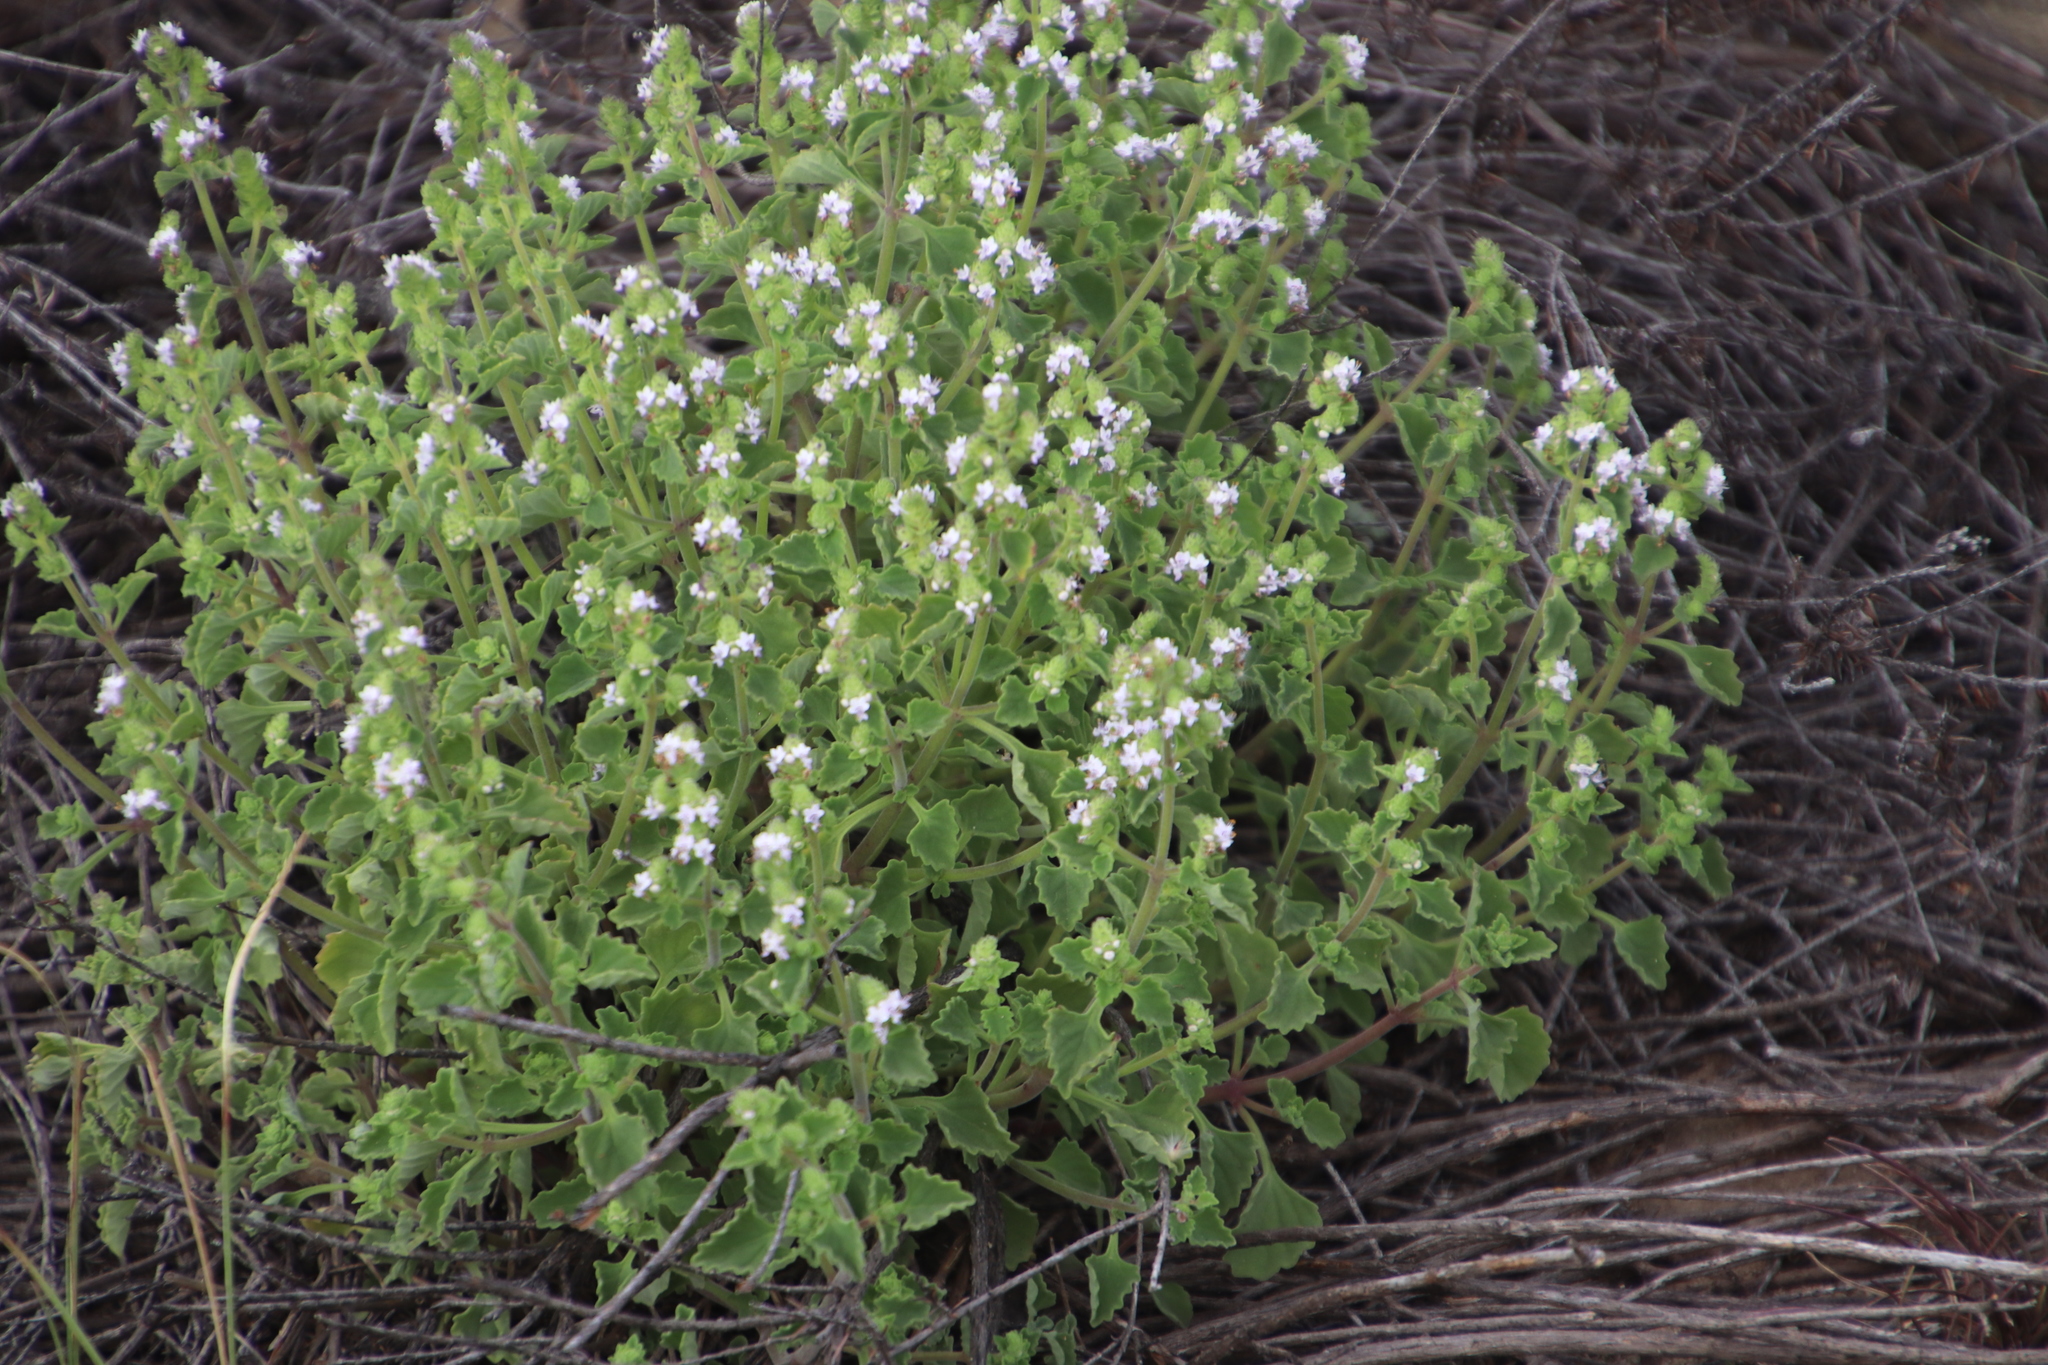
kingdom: Plantae
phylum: Tracheophyta
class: Magnoliopsida
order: Lamiales
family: Lamiaceae
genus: Aeollanthus
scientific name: Aeollanthus buchnerianus
